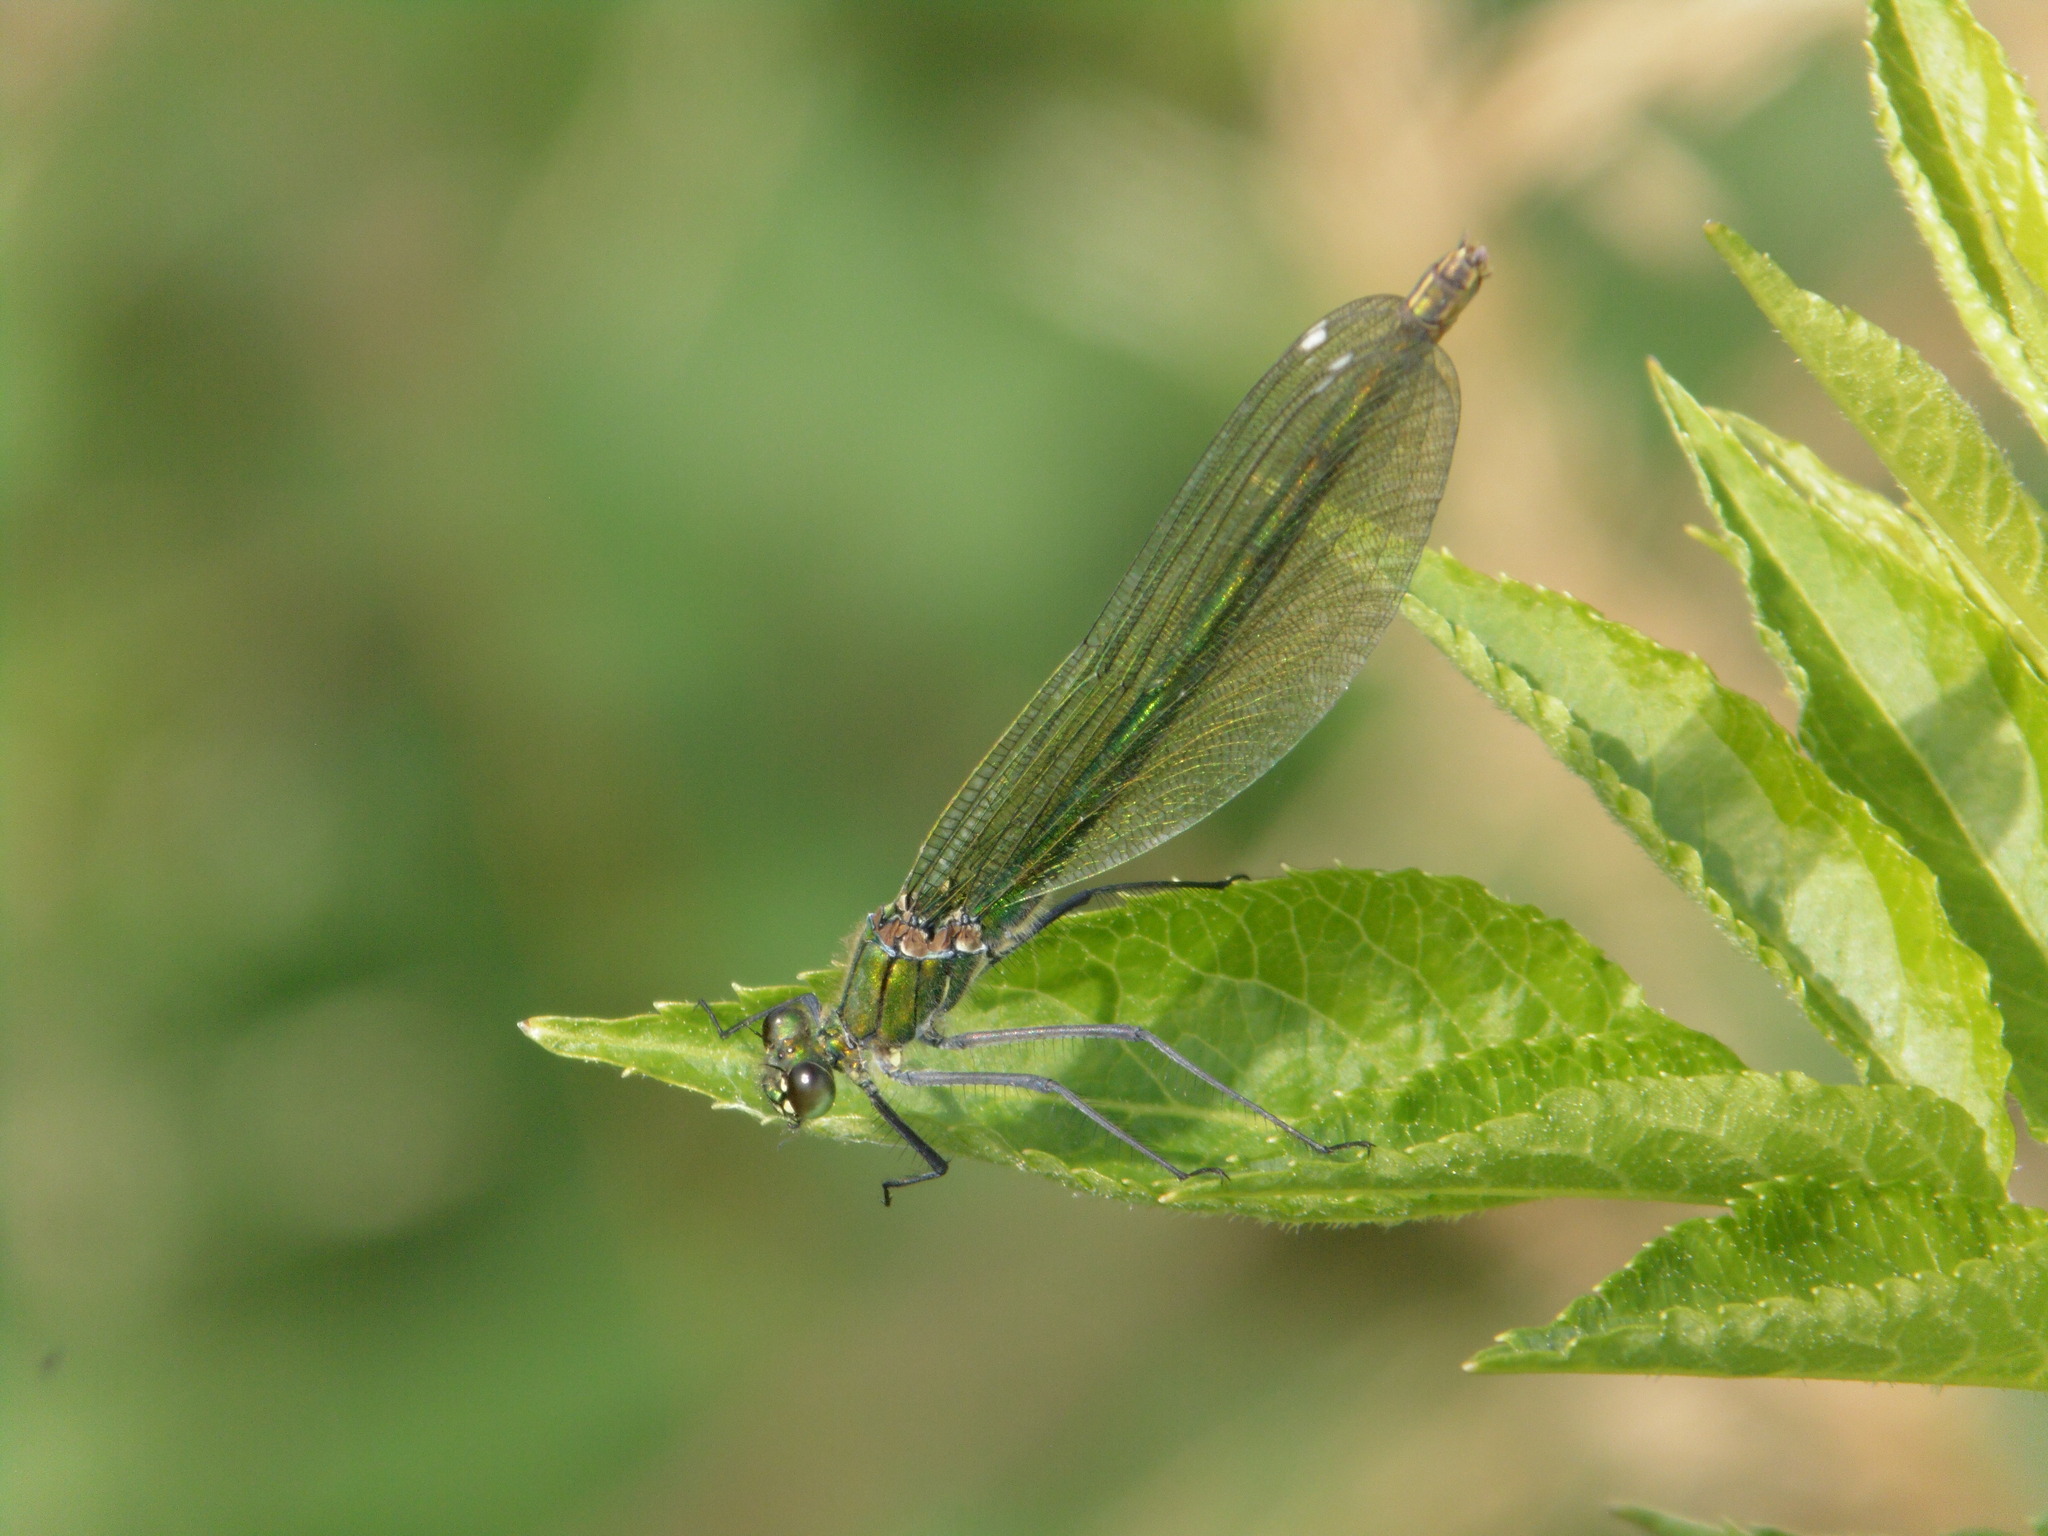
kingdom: Animalia
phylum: Arthropoda
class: Insecta
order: Odonata
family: Calopterygidae
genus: Calopteryx
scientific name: Calopteryx splendens
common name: Banded demoiselle
